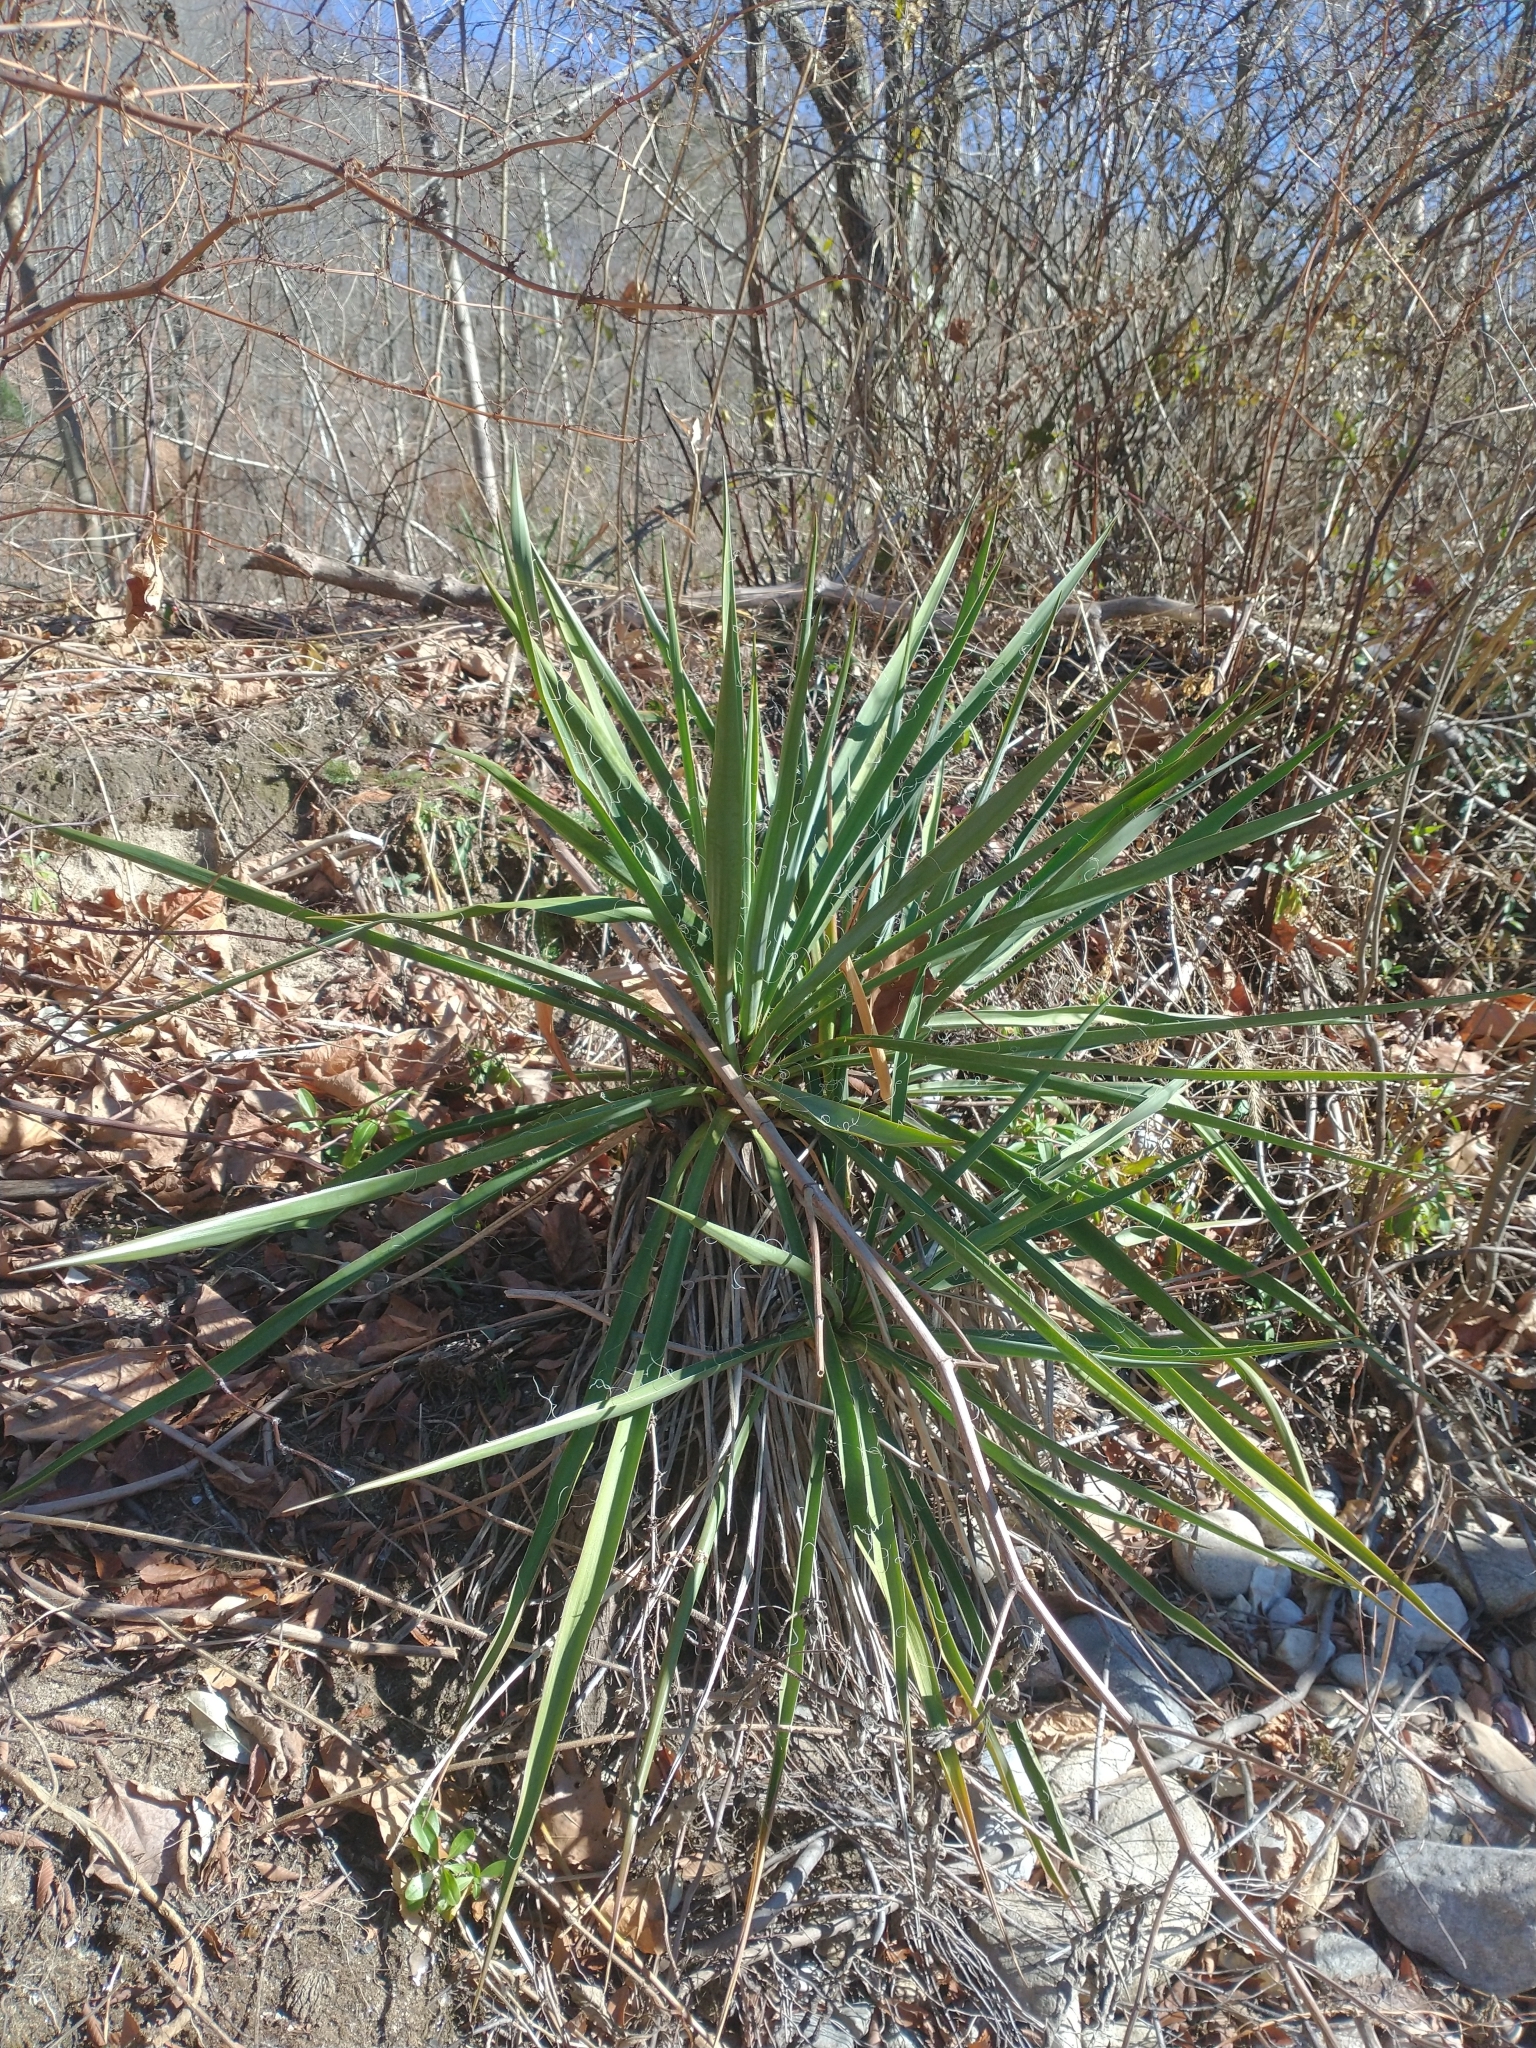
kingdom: Plantae
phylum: Tracheophyta
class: Liliopsida
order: Asparagales
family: Asparagaceae
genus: Yucca
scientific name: Yucca filamentosa
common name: Adam's-needle
